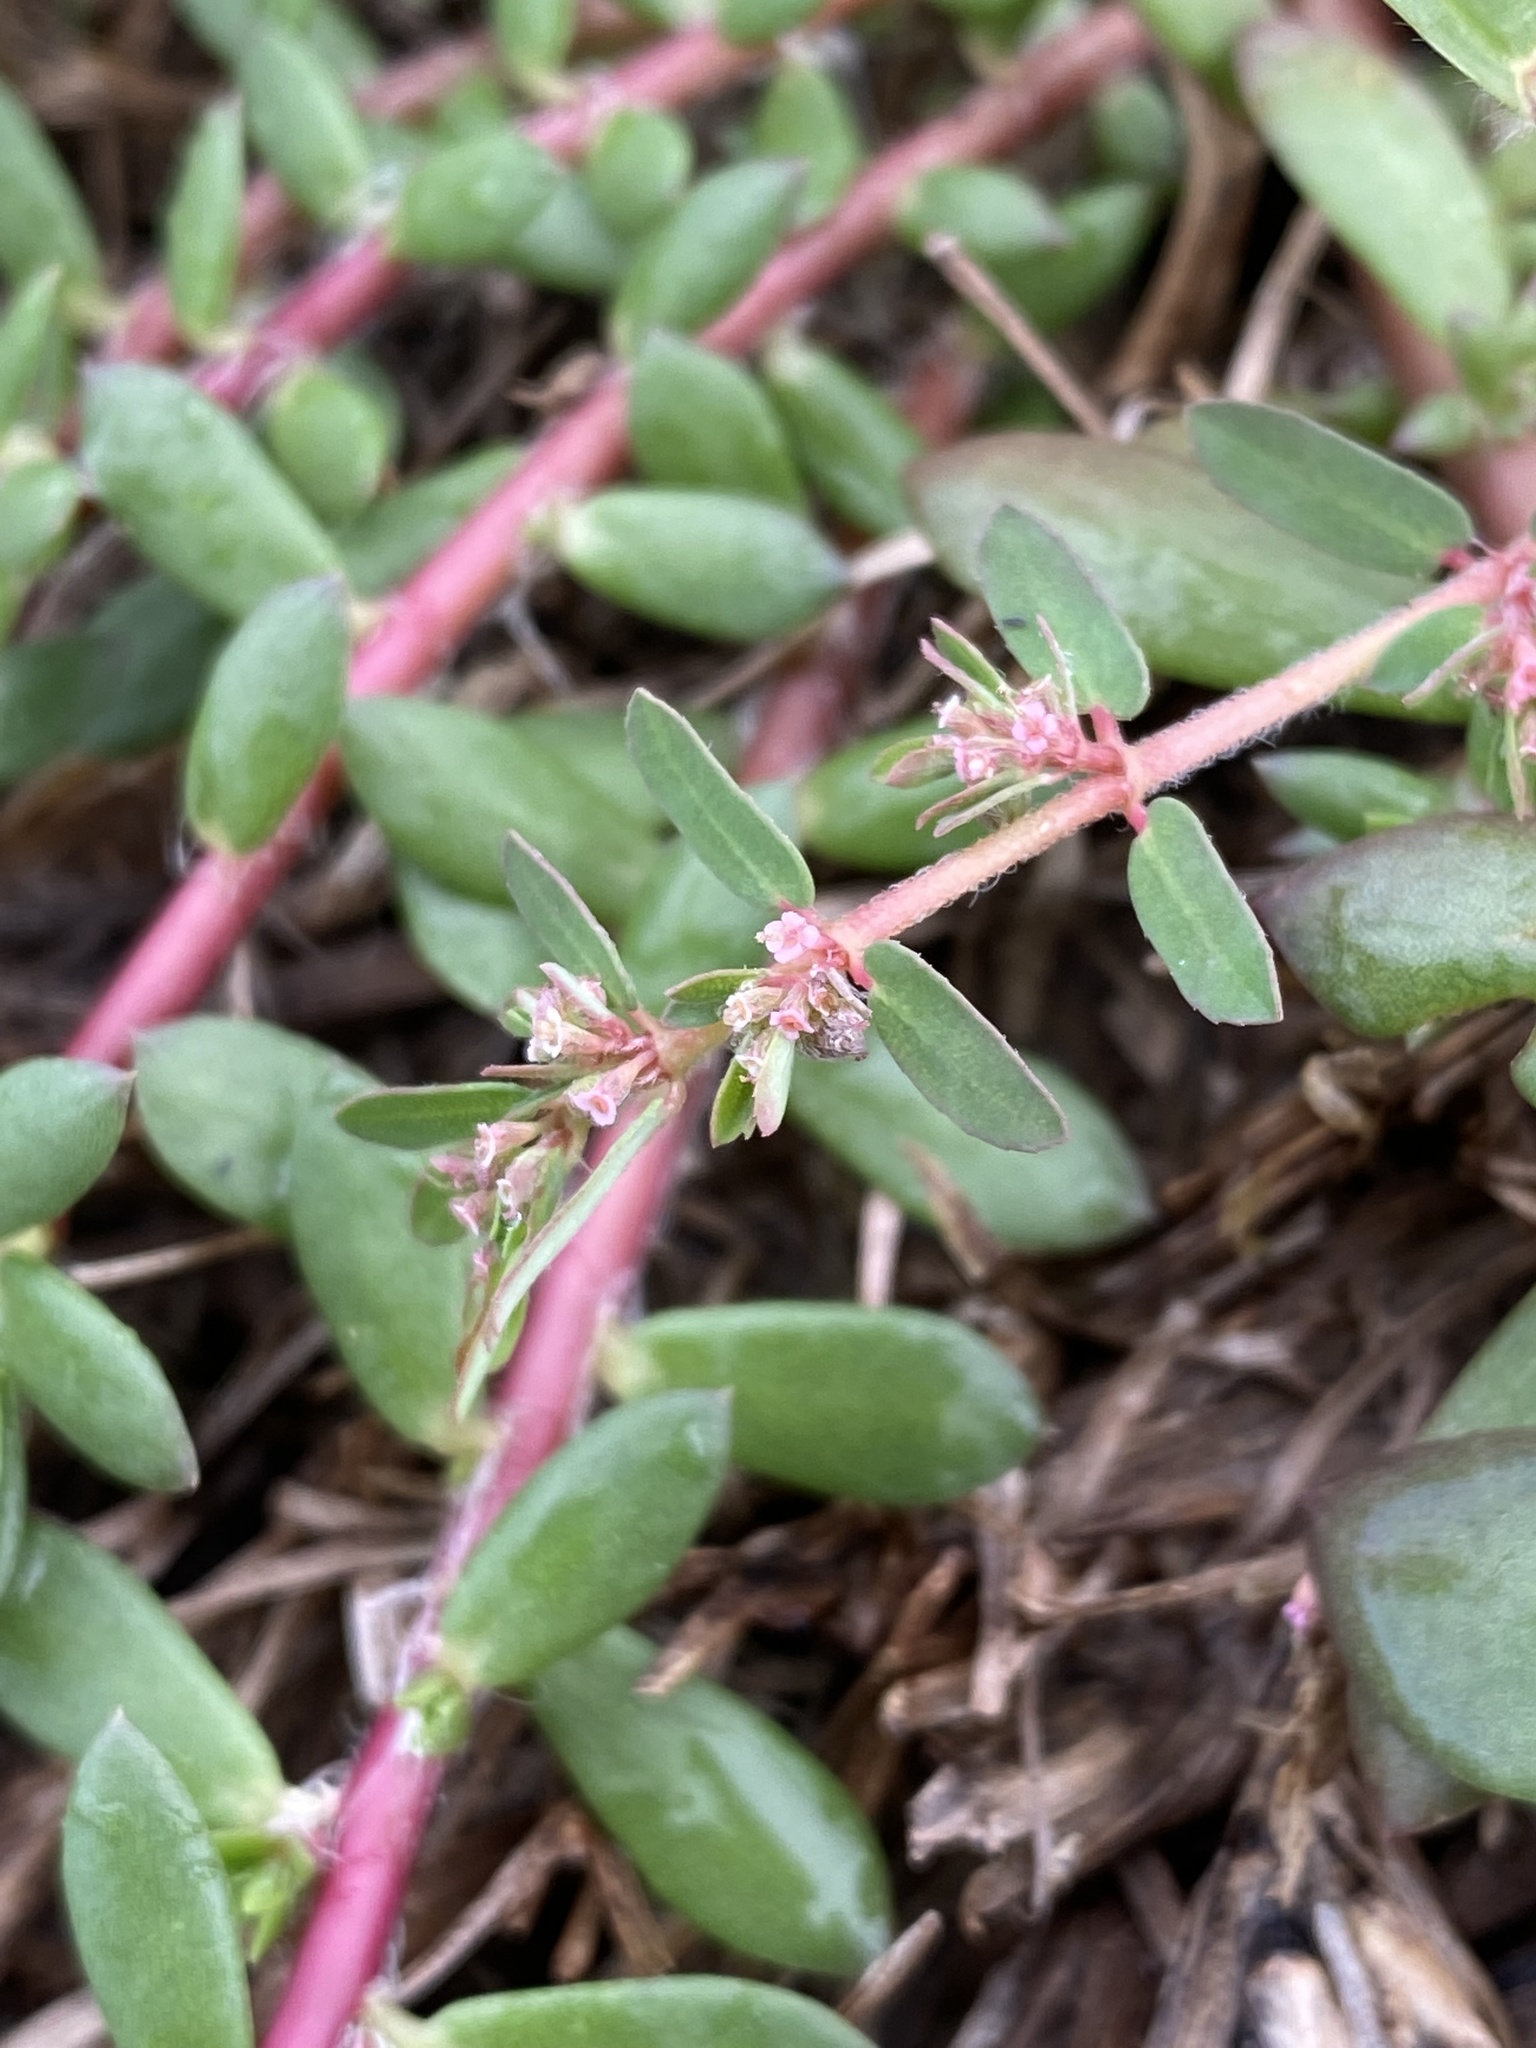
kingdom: Plantae
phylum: Tracheophyta
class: Magnoliopsida
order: Malpighiales
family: Euphorbiaceae
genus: Euphorbia
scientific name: Euphorbia maculata
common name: Spotted spurge
